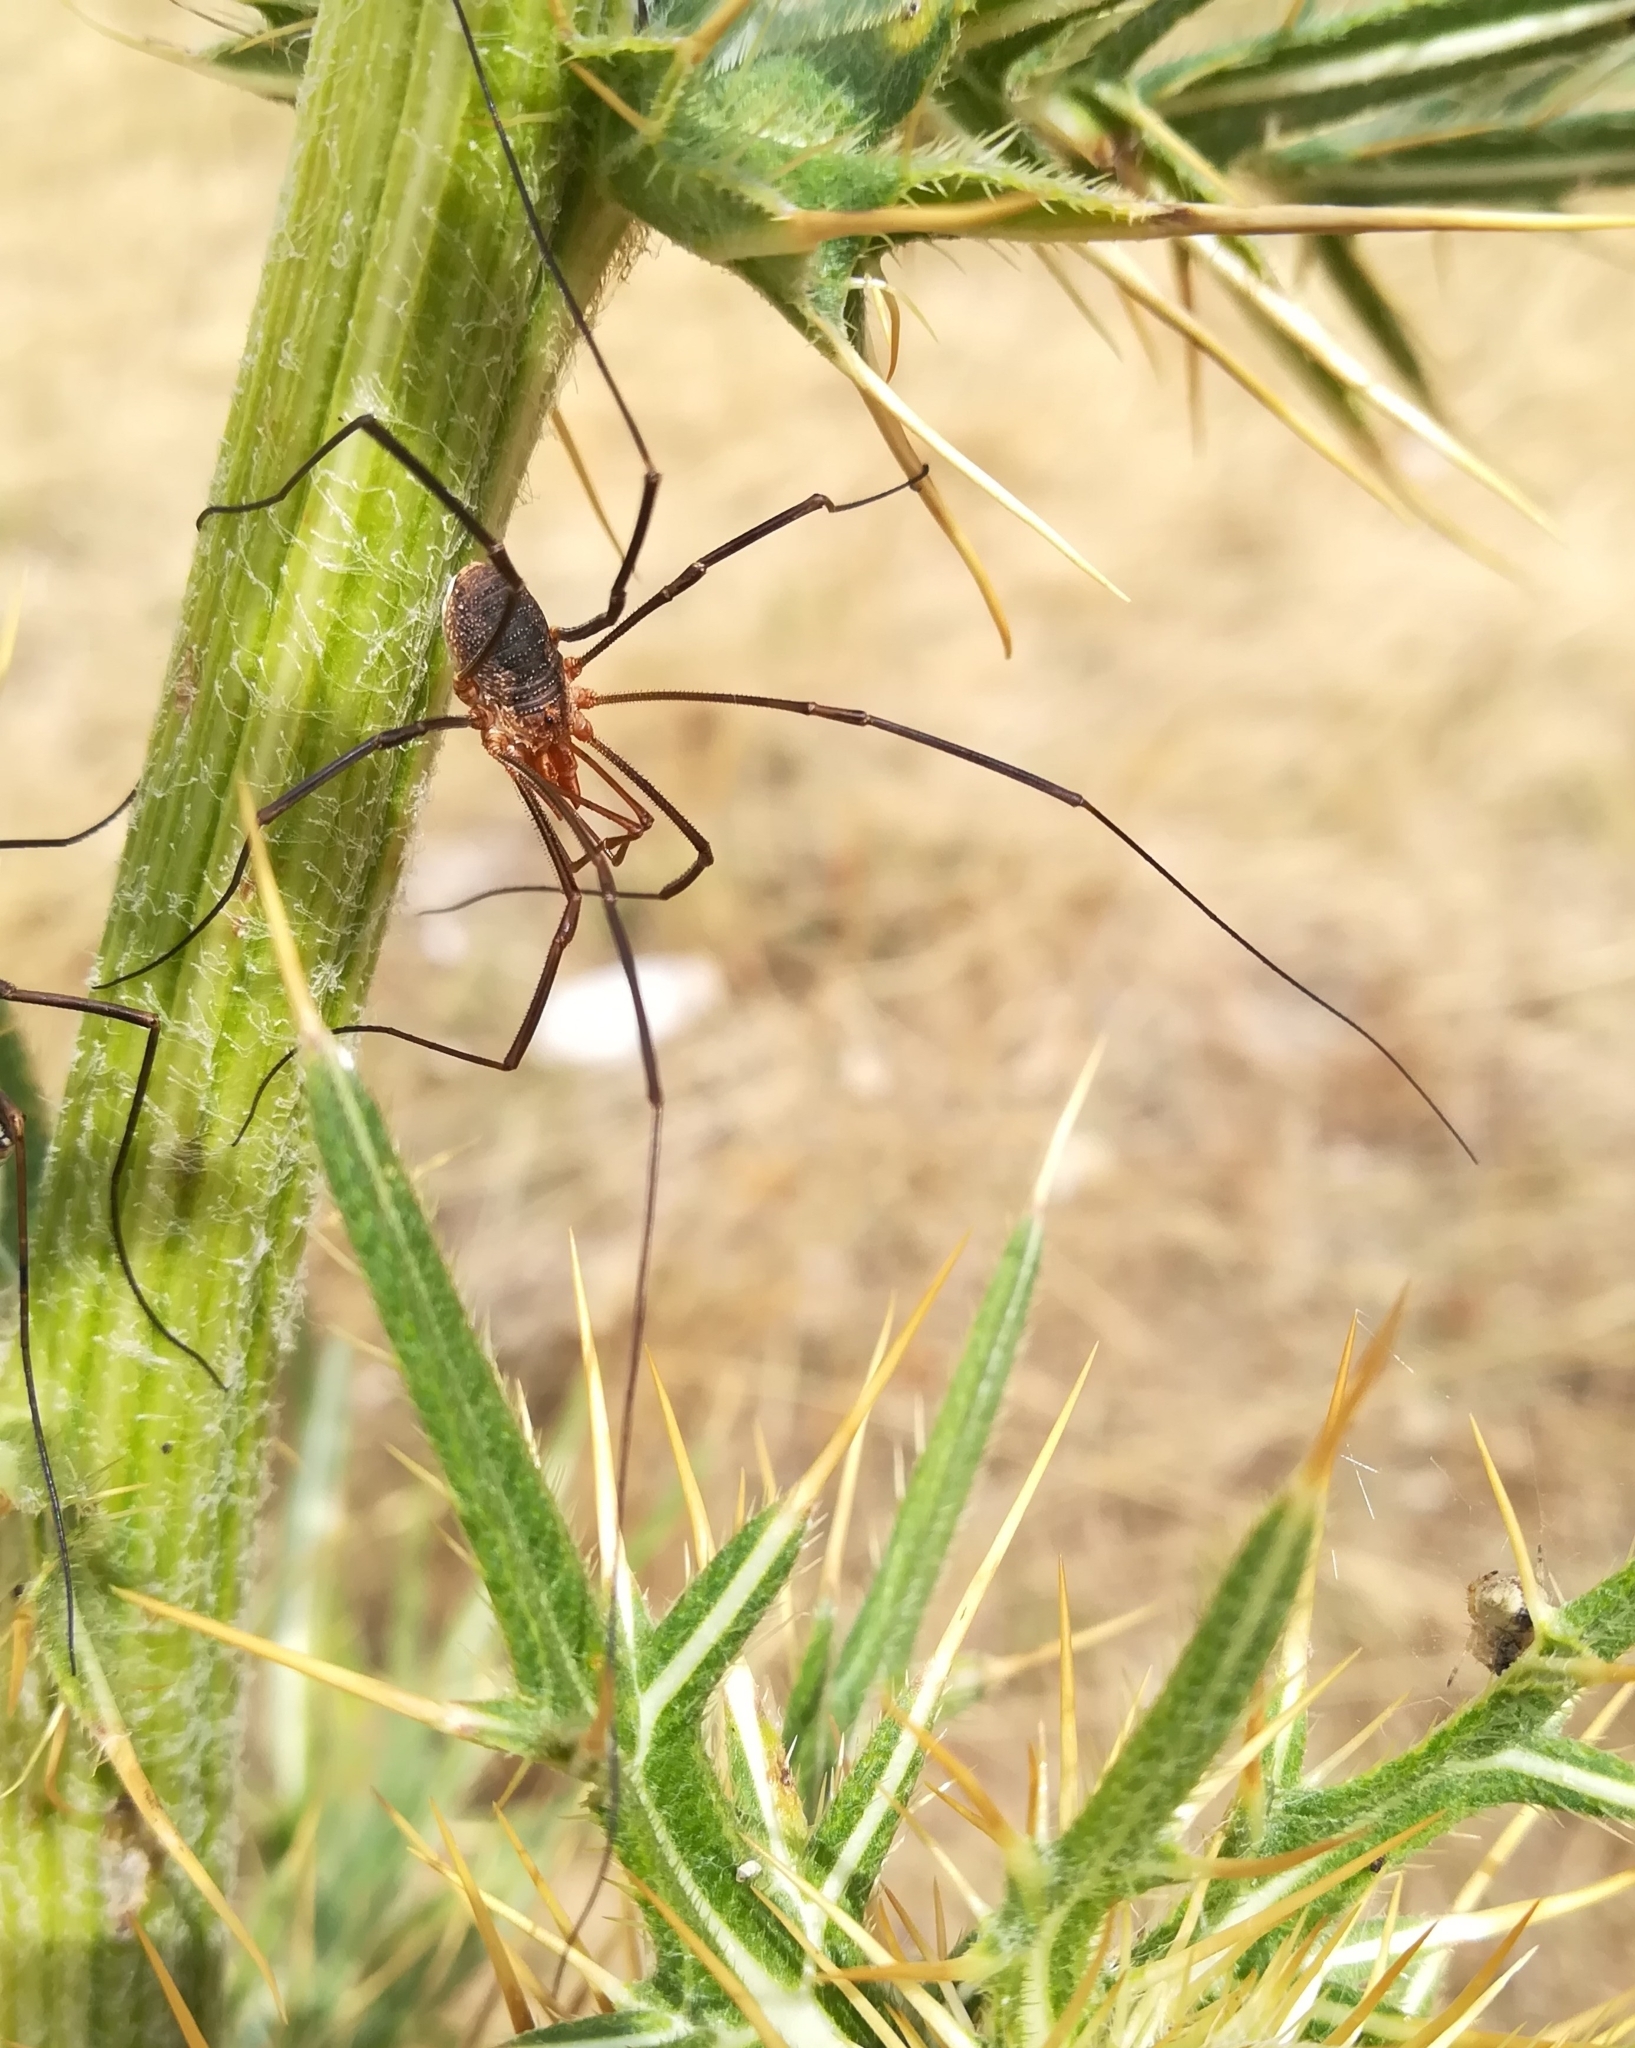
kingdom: Animalia
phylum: Arthropoda
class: Arachnida
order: Opiliones
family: Phalangiidae
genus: Phalangium
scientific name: Phalangium opilio
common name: Daddy longleg
